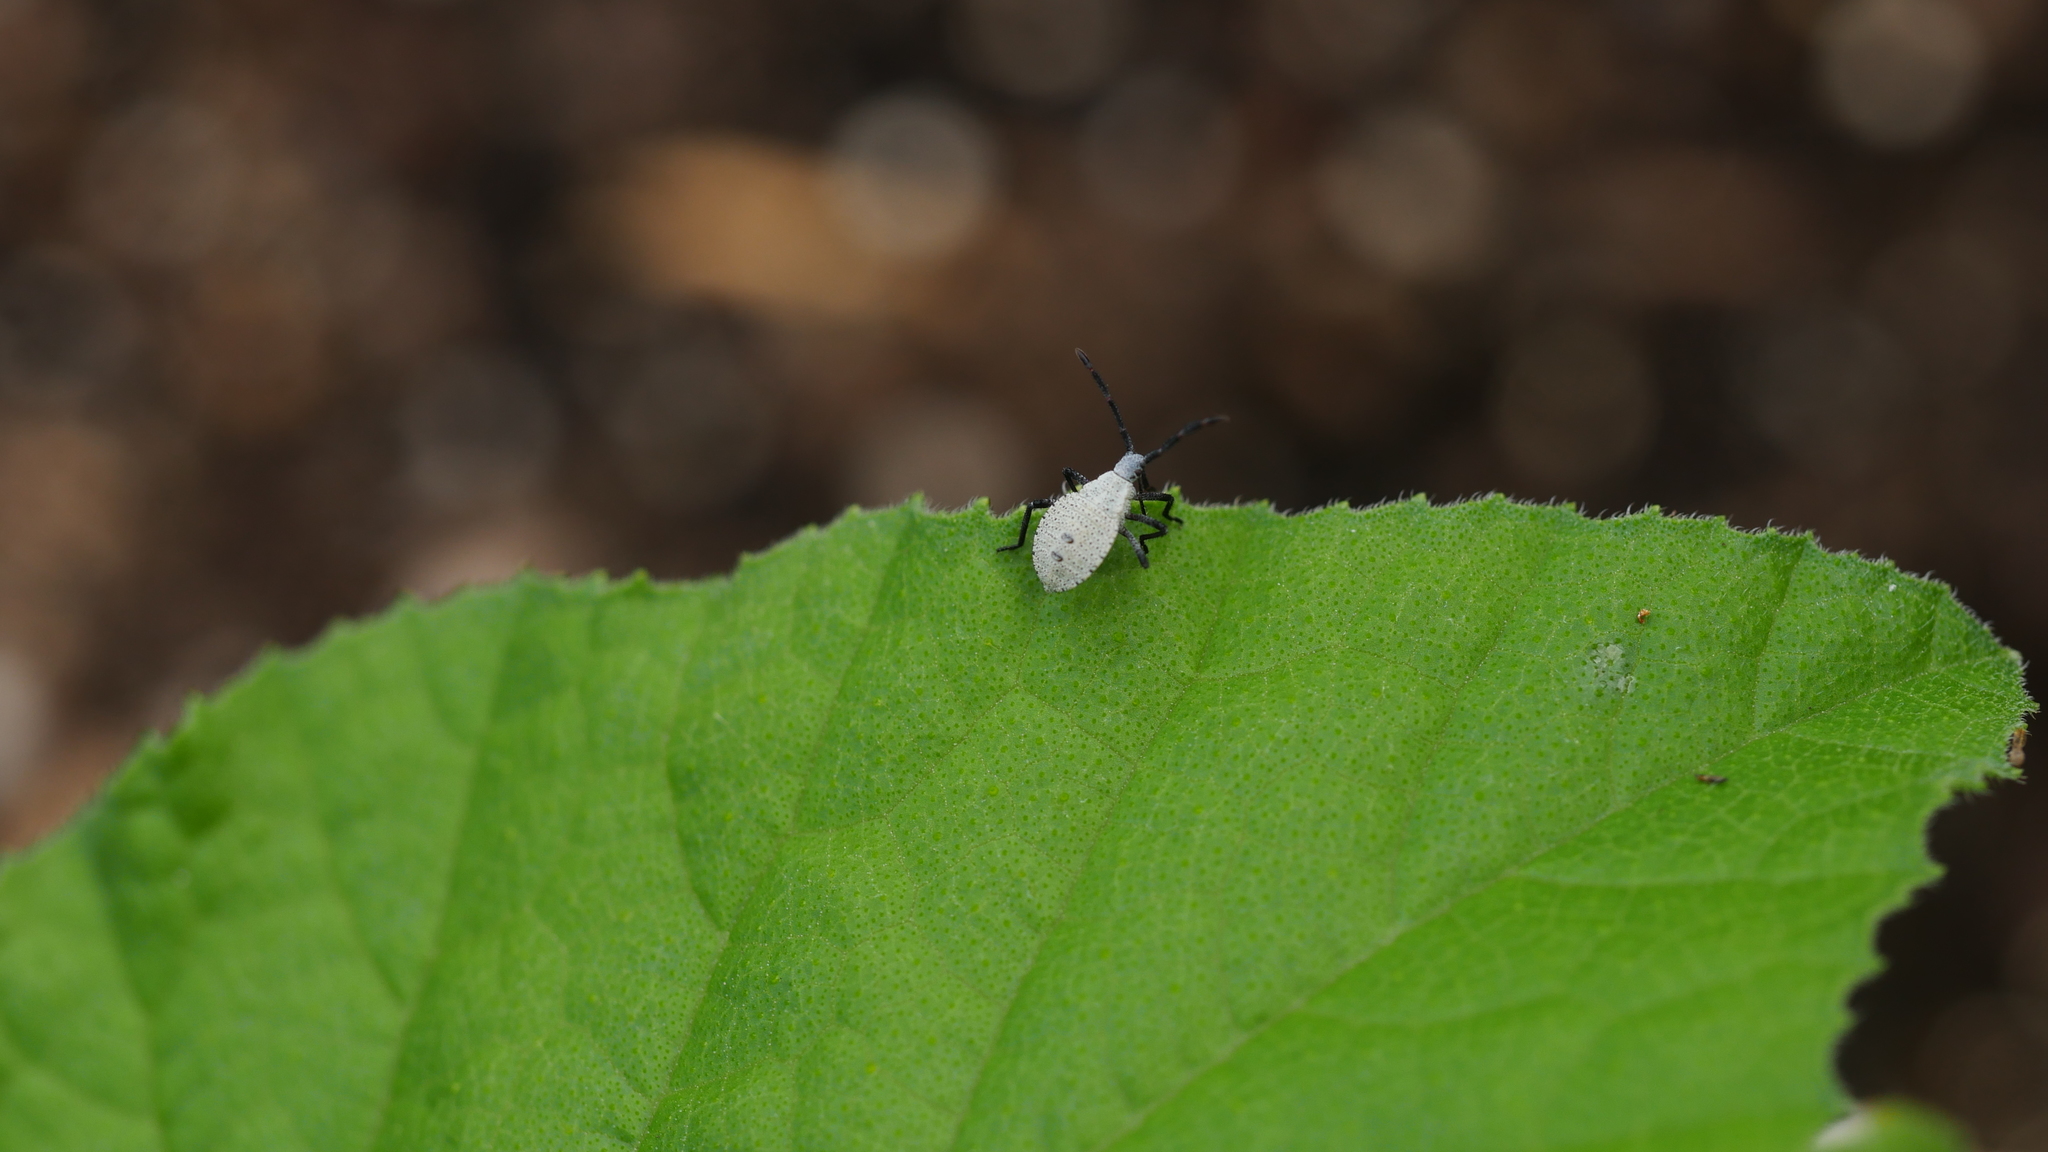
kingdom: Animalia
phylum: Arthropoda
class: Insecta
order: Hemiptera
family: Coreidae
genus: Anasa
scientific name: Anasa tristis
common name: Squash bug
